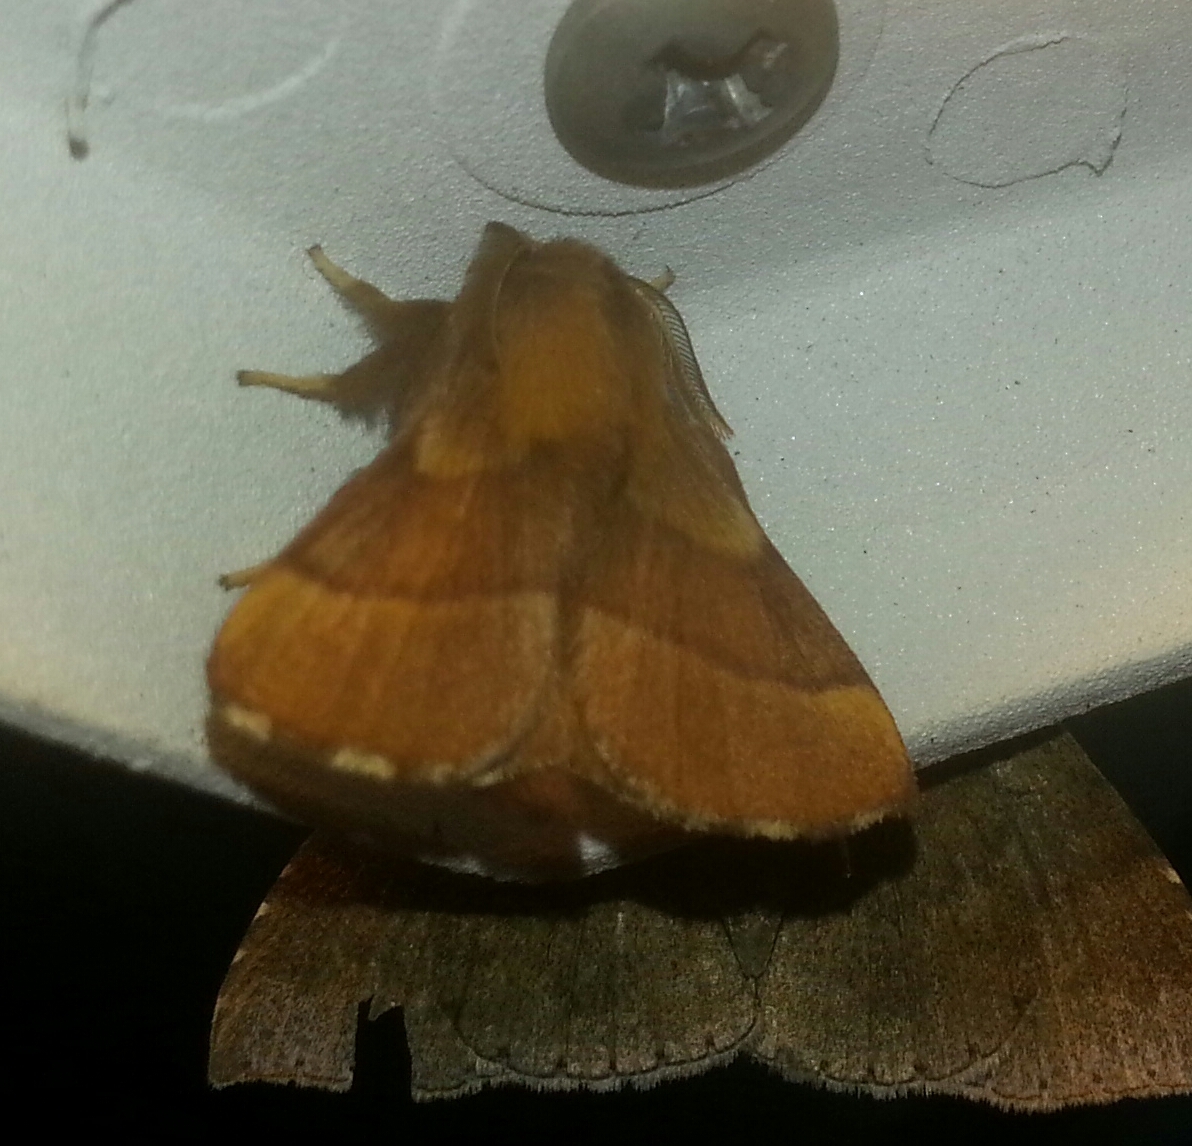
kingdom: Animalia
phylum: Arthropoda
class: Insecta
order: Lepidoptera
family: Lasiocampidae
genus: Malacosoma
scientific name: Malacosoma disstria
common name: Forest tent caterpillar
